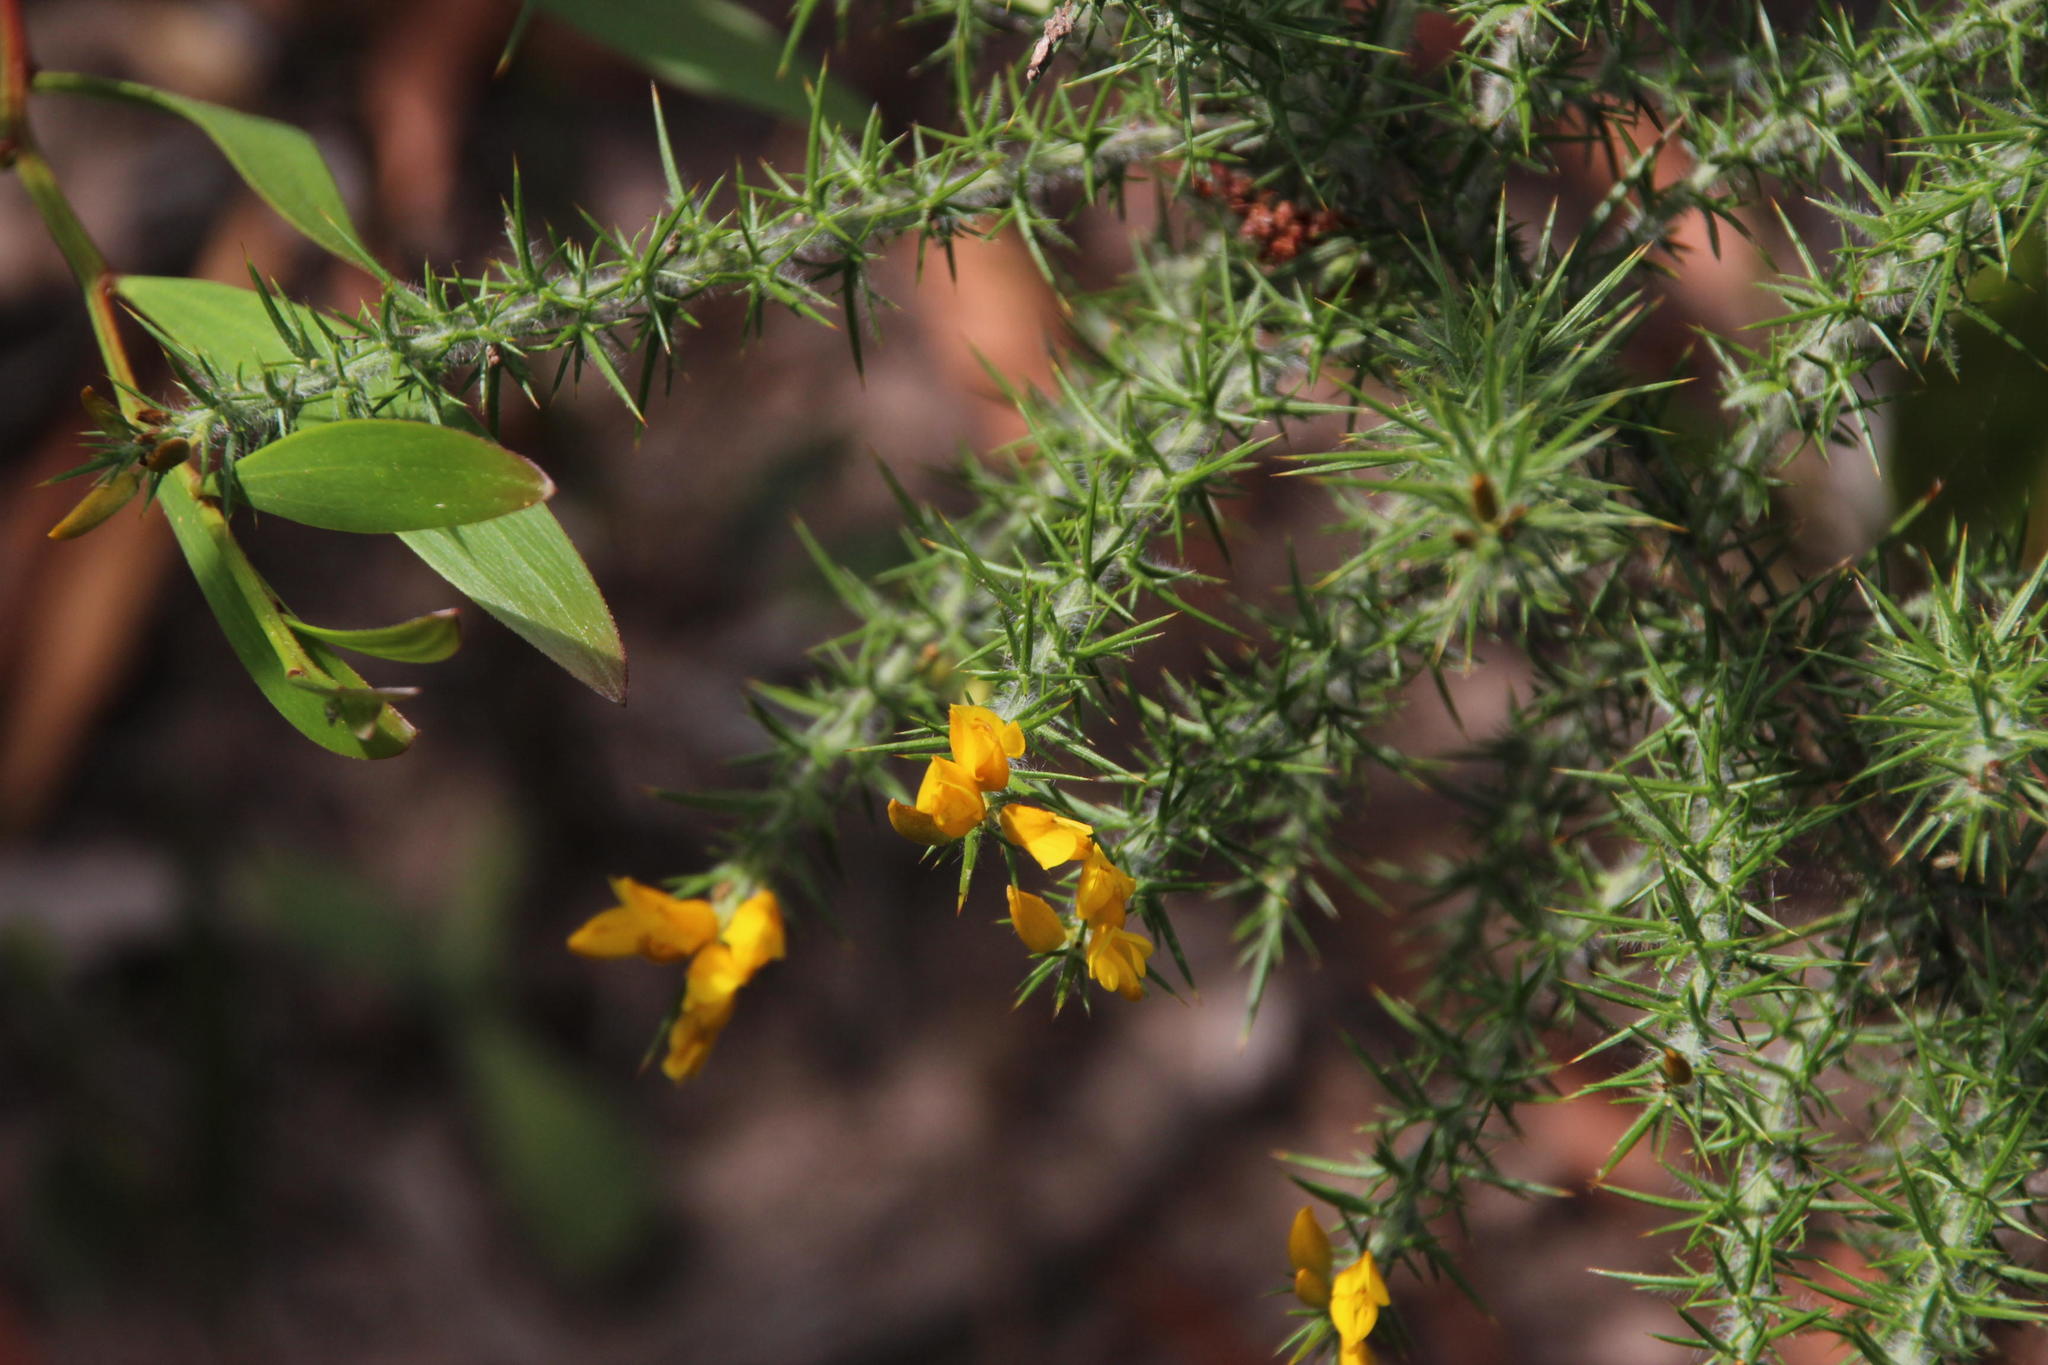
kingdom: Plantae
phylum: Tracheophyta
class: Magnoliopsida
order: Fabales
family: Fabaceae
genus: Ulex
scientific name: Ulex minor
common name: Dwarf gorse
